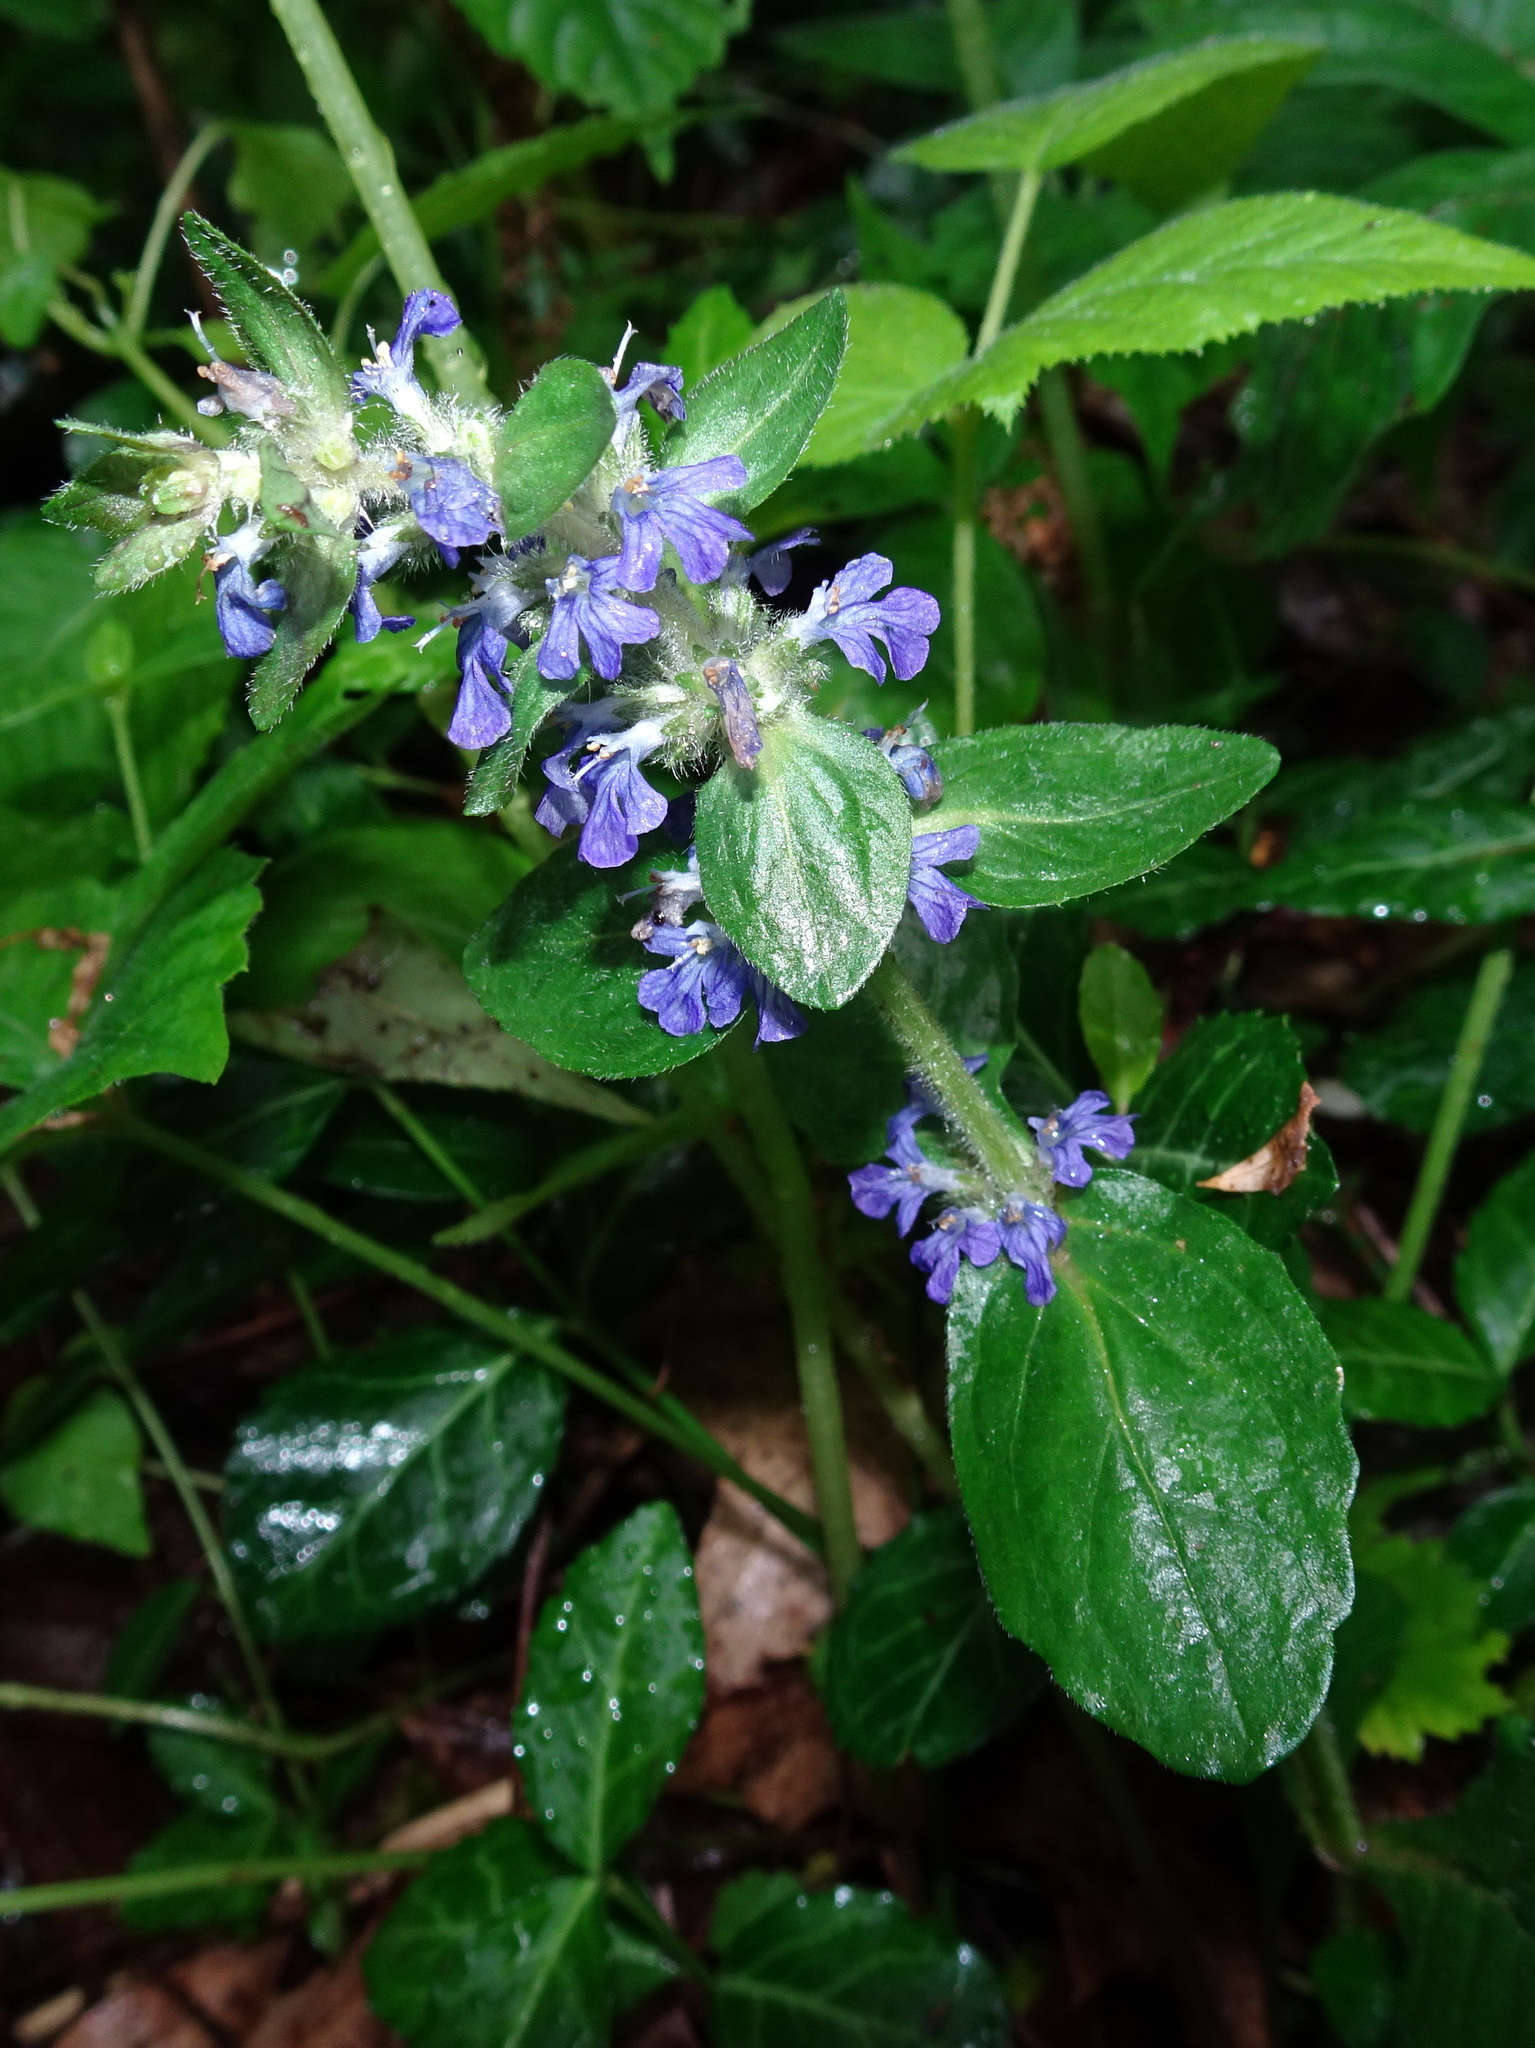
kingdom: Plantae
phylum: Tracheophyta
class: Magnoliopsida
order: Lamiales
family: Lamiaceae
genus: Ajuga
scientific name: Ajuga reptans
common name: Bugle
